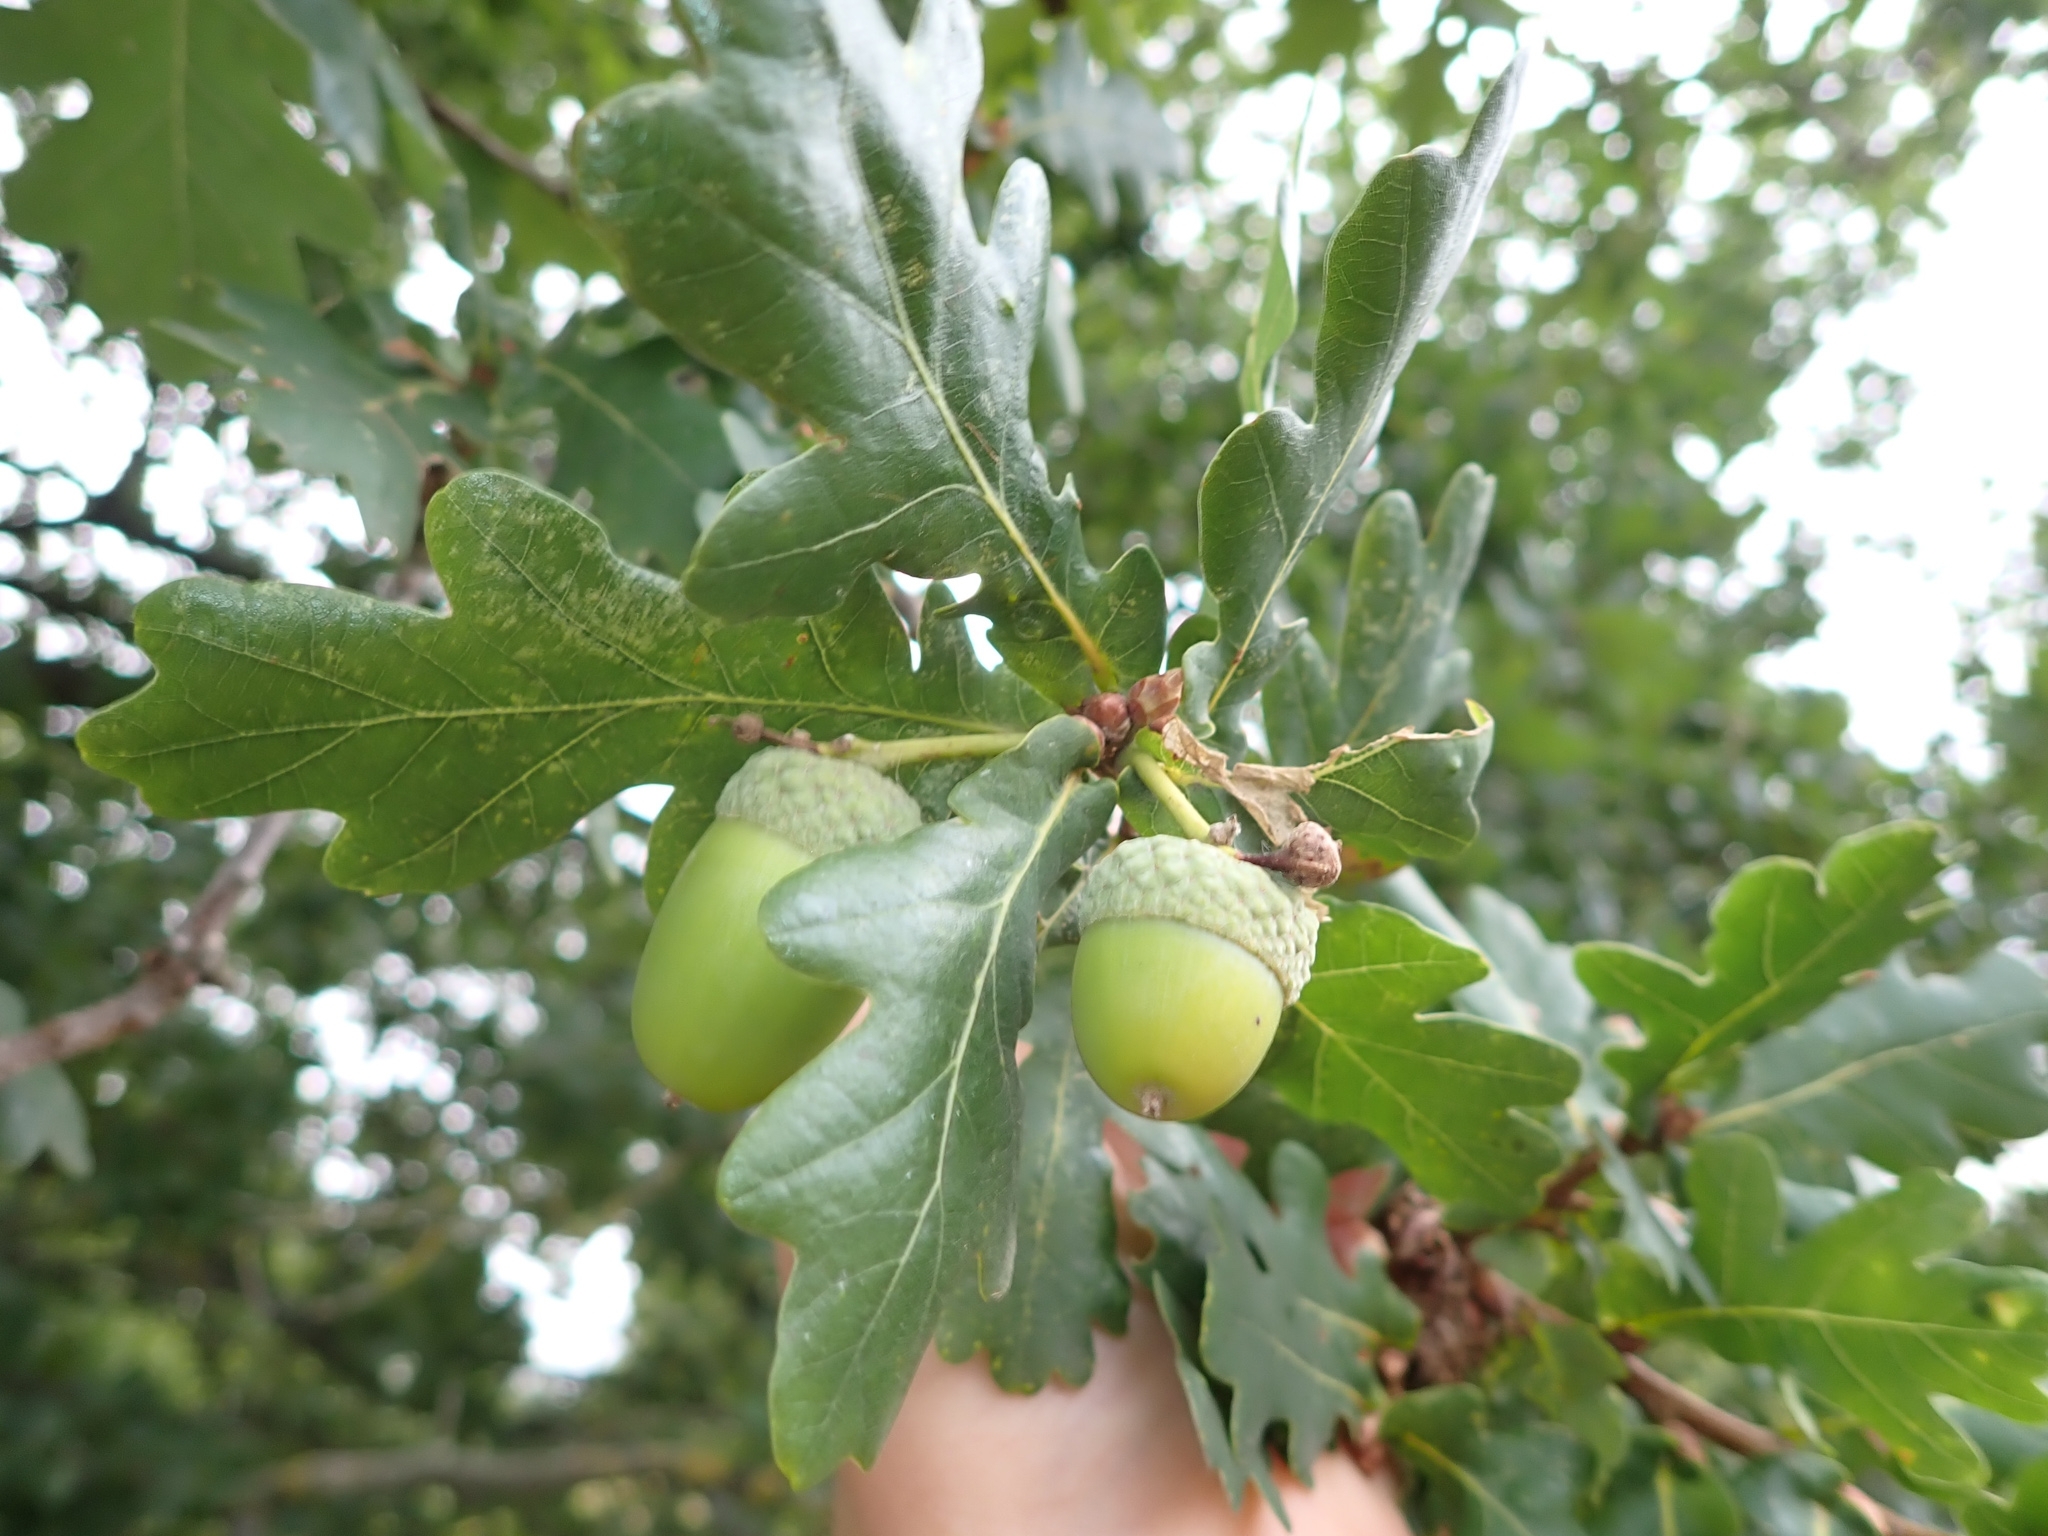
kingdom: Plantae
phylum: Tracheophyta
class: Magnoliopsida
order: Fagales
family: Fagaceae
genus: Quercus
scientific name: Quercus robur
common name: Pedunculate oak
